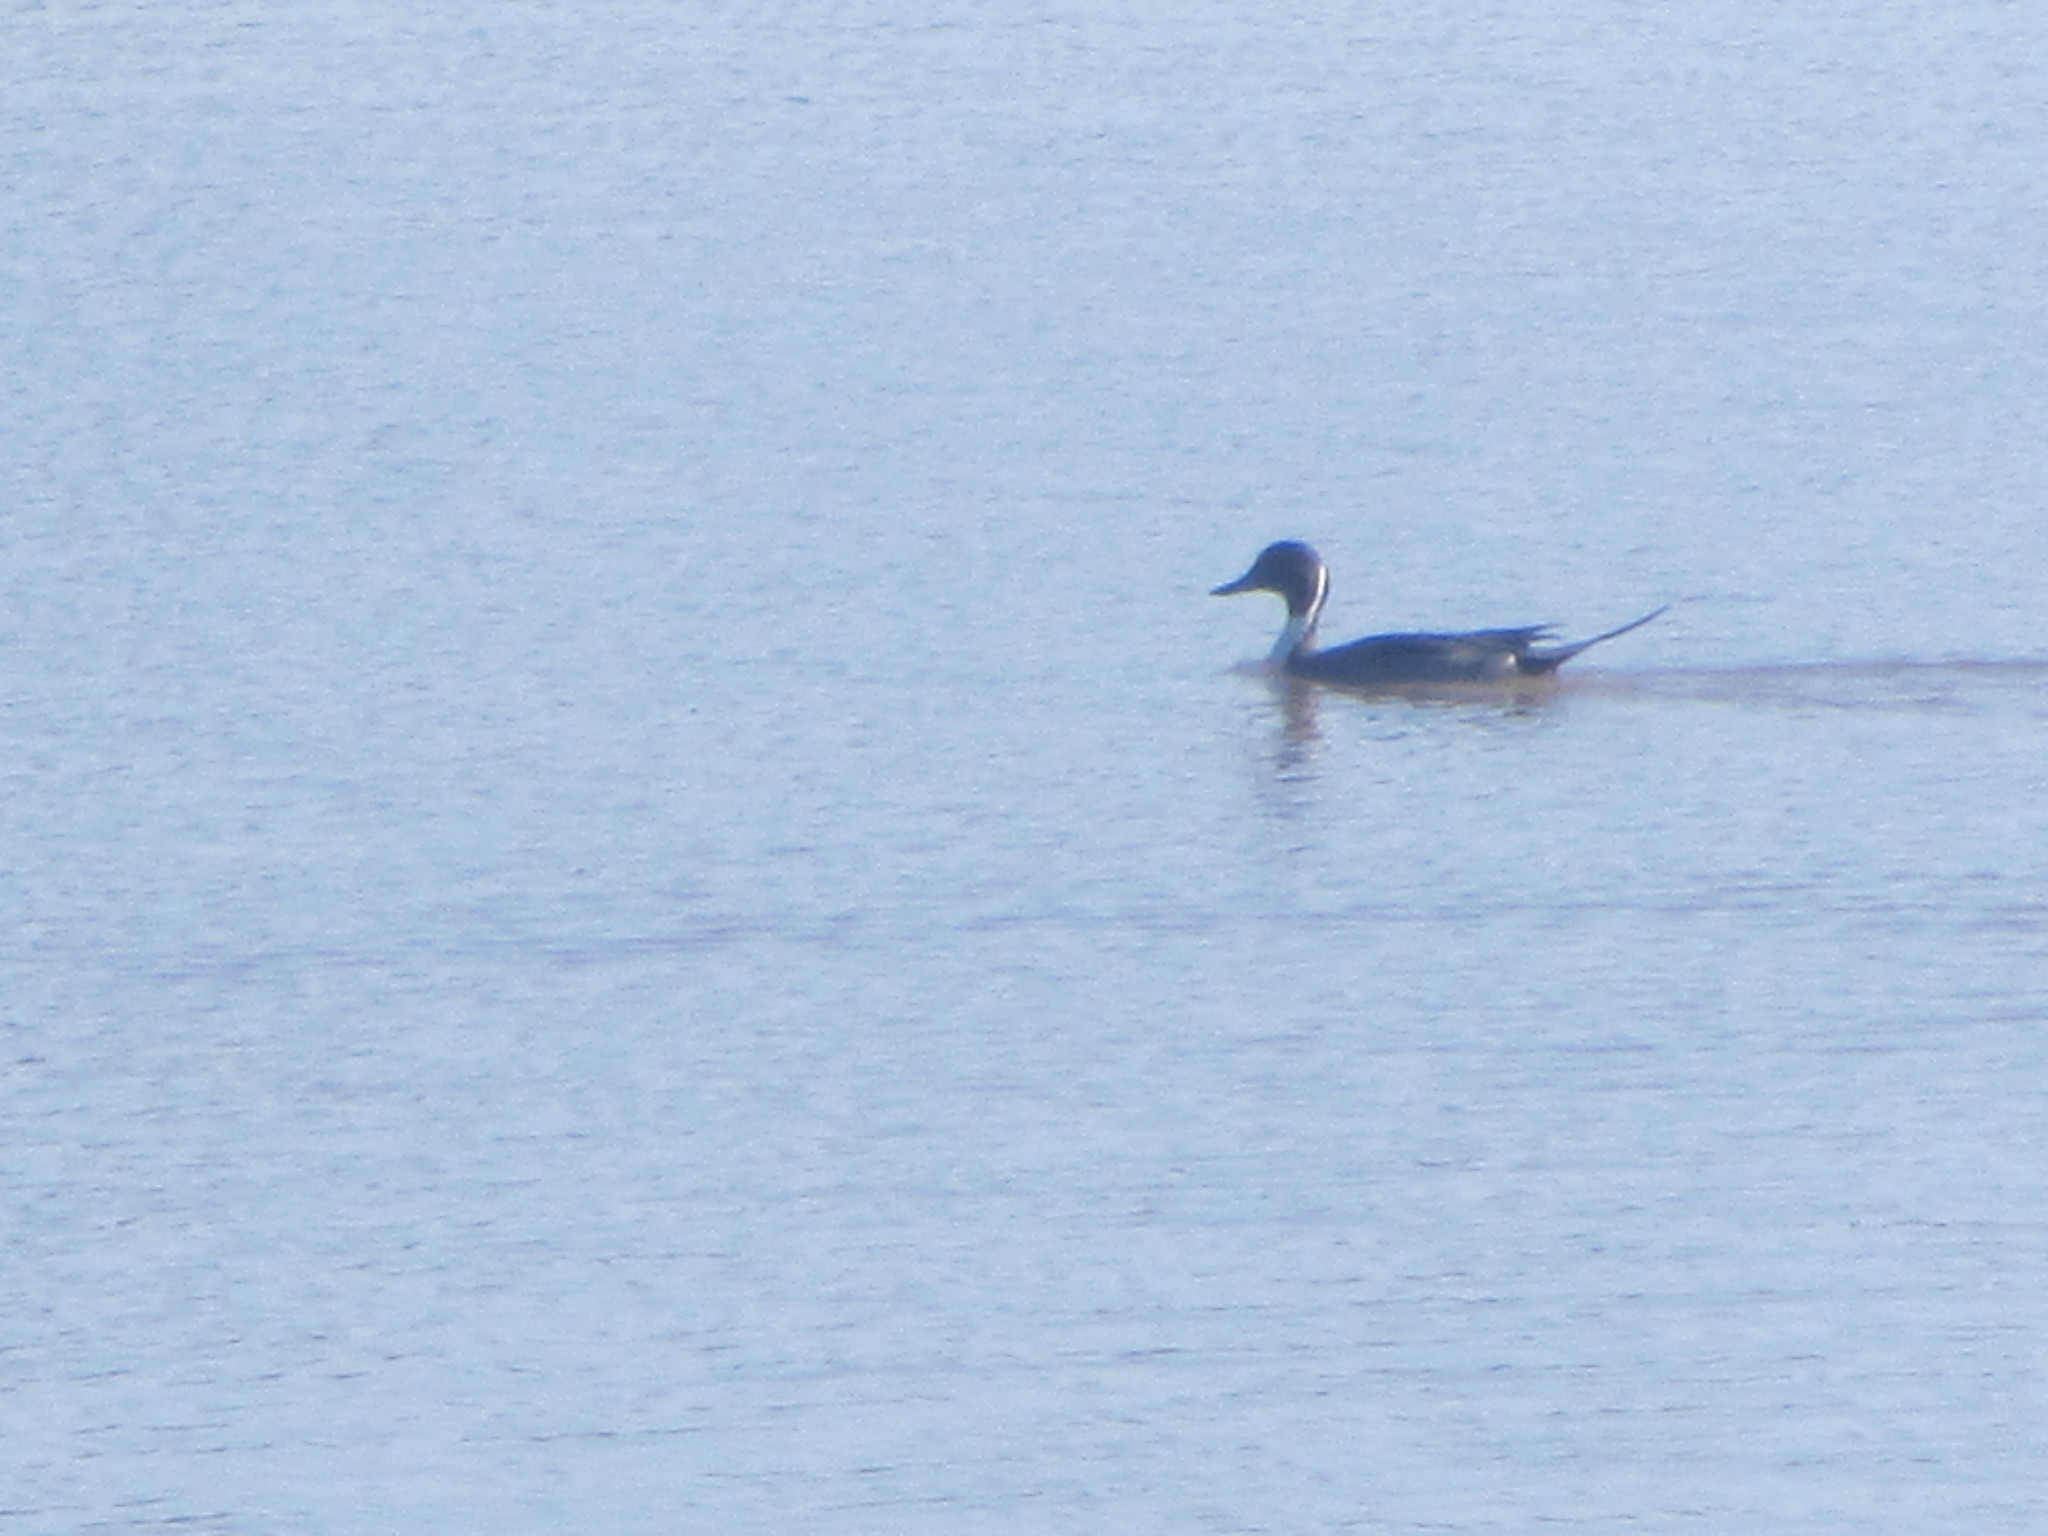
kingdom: Animalia
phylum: Chordata
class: Aves
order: Anseriformes
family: Anatidae
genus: Anas
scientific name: Anas acuta
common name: Northern pintail
